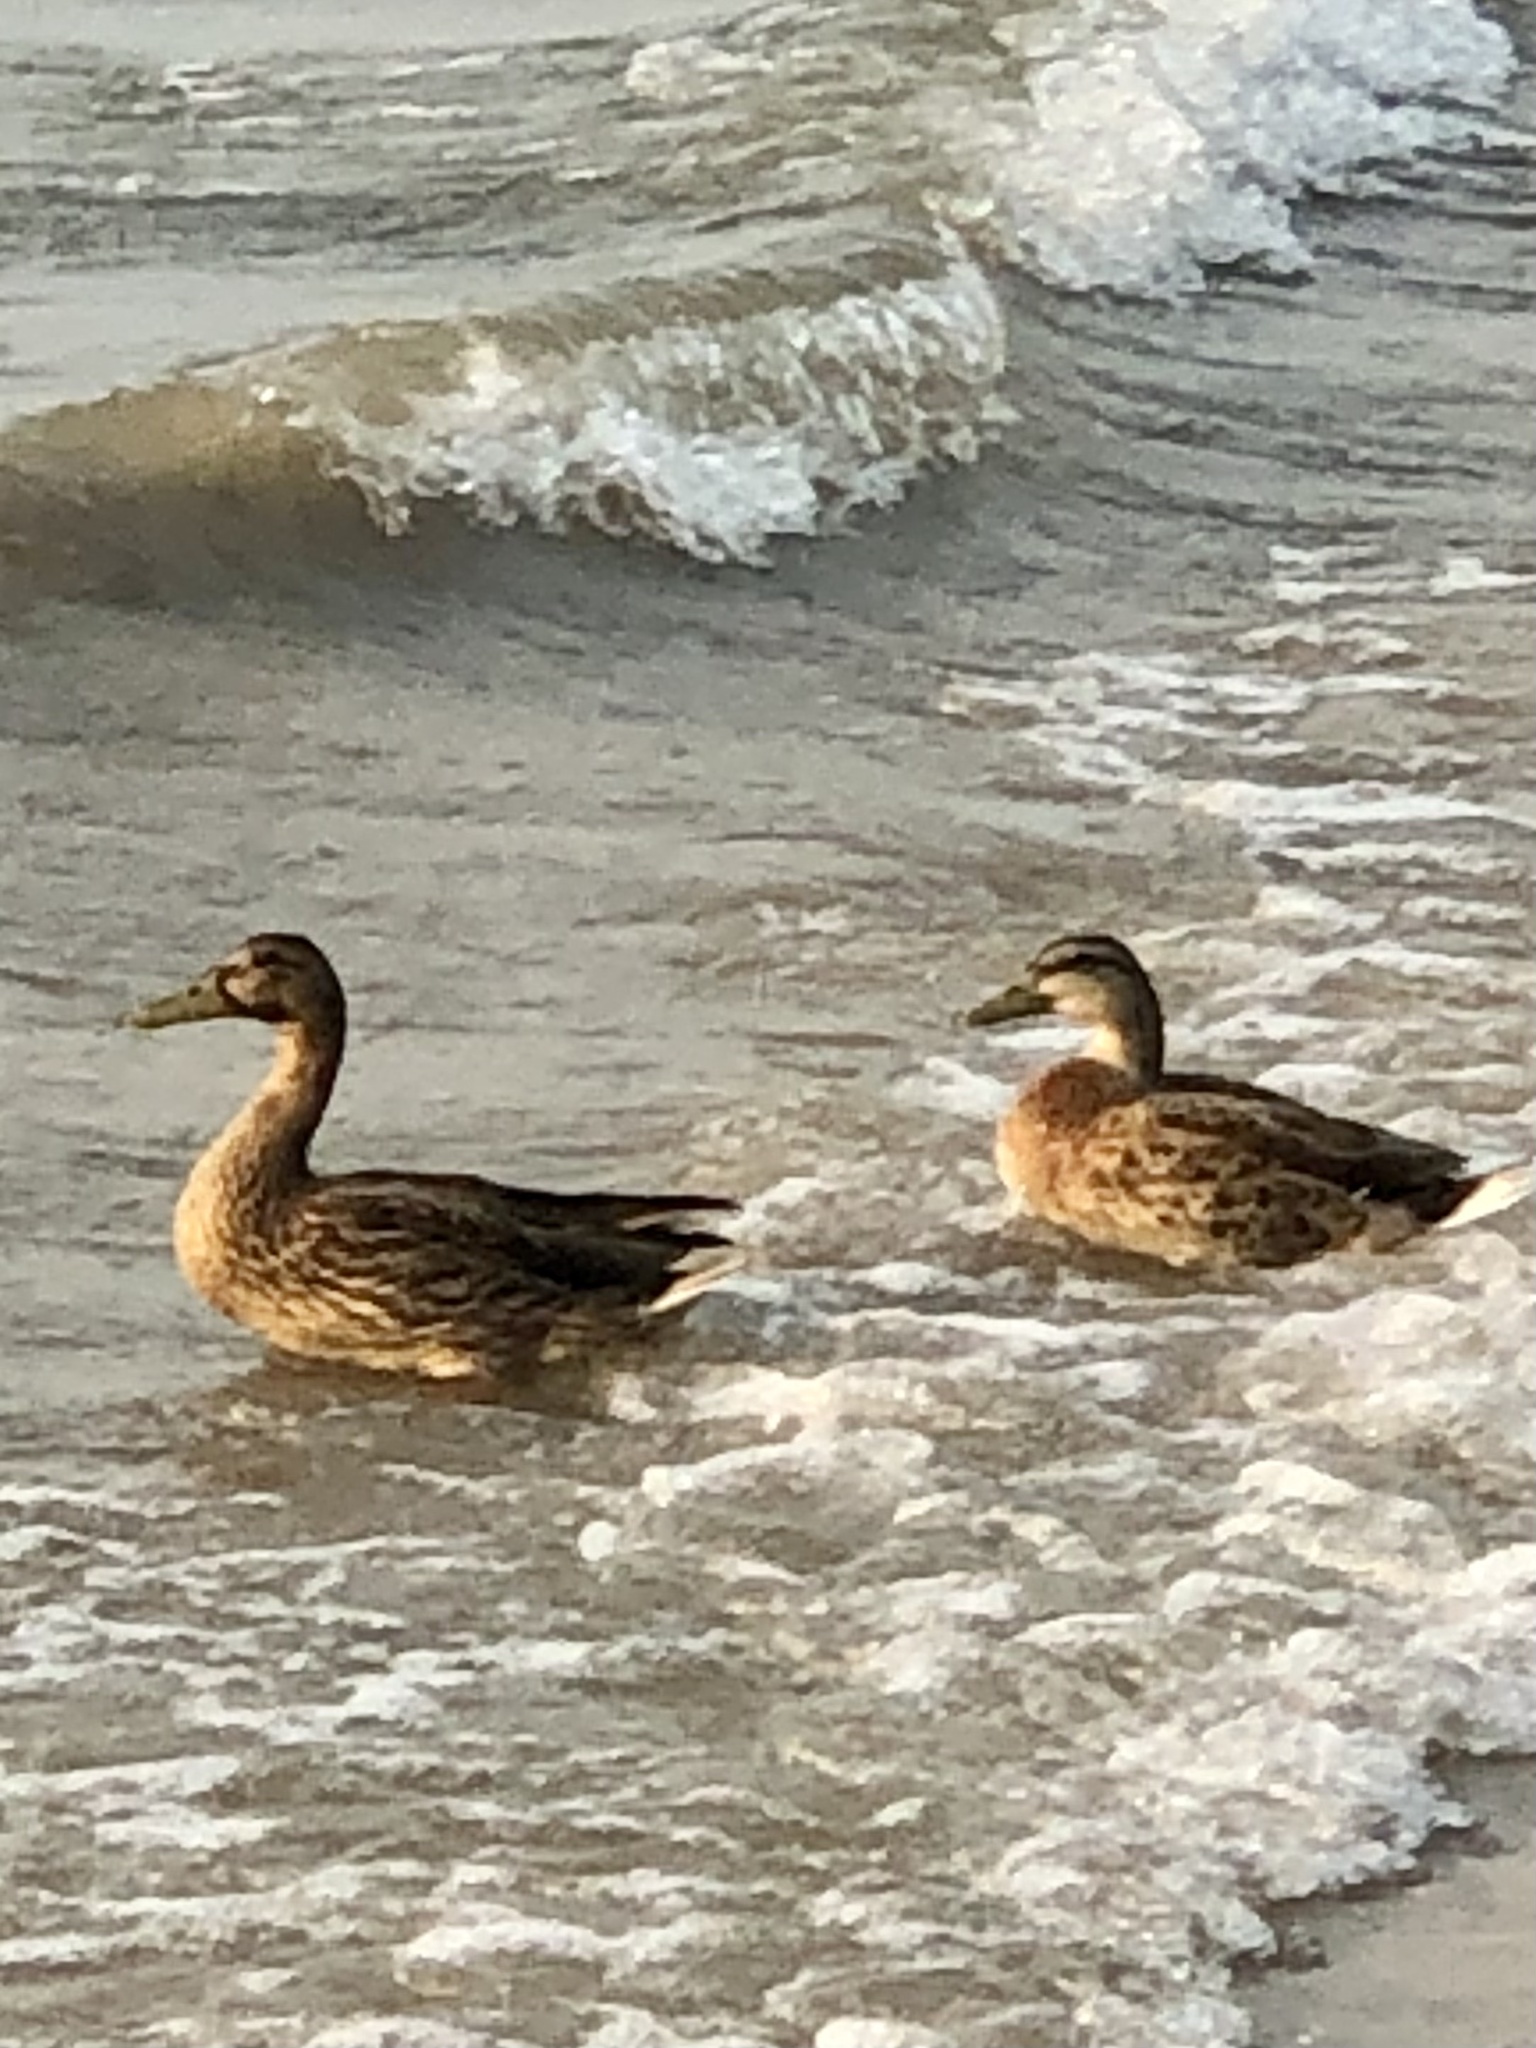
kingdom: Animalia
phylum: Chordata
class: Aves
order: Anseriformes
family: Anatidae
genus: Anas
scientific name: Anas platyrhynchos
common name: Mallard
